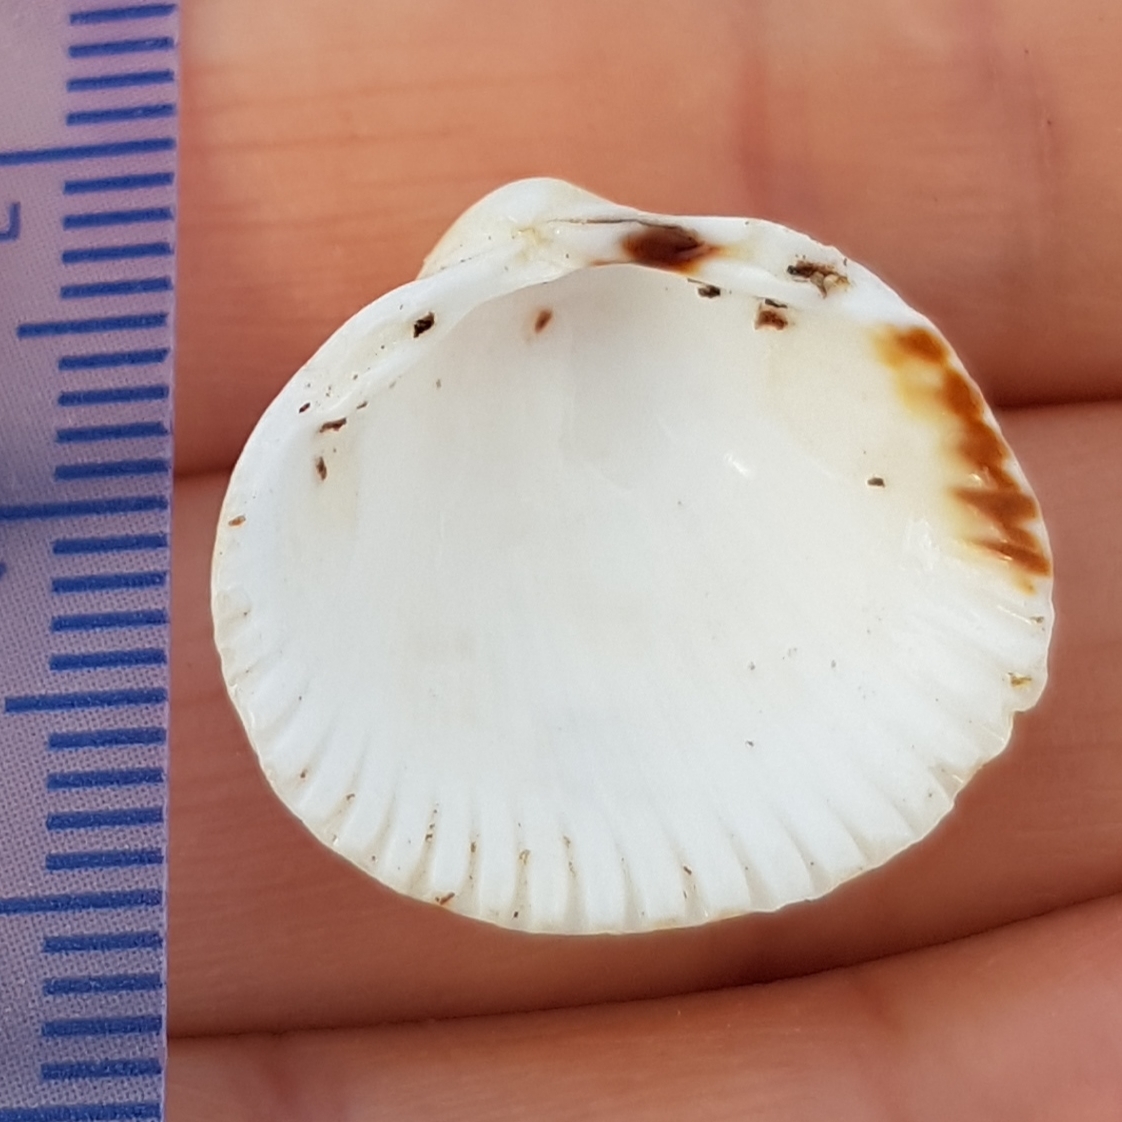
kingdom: Animalia
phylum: Mollusca
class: Bivalvia
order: Cardiida
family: Cardiidae
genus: Cerastoderma
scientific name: Cerastoderma edule
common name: Common cockle
